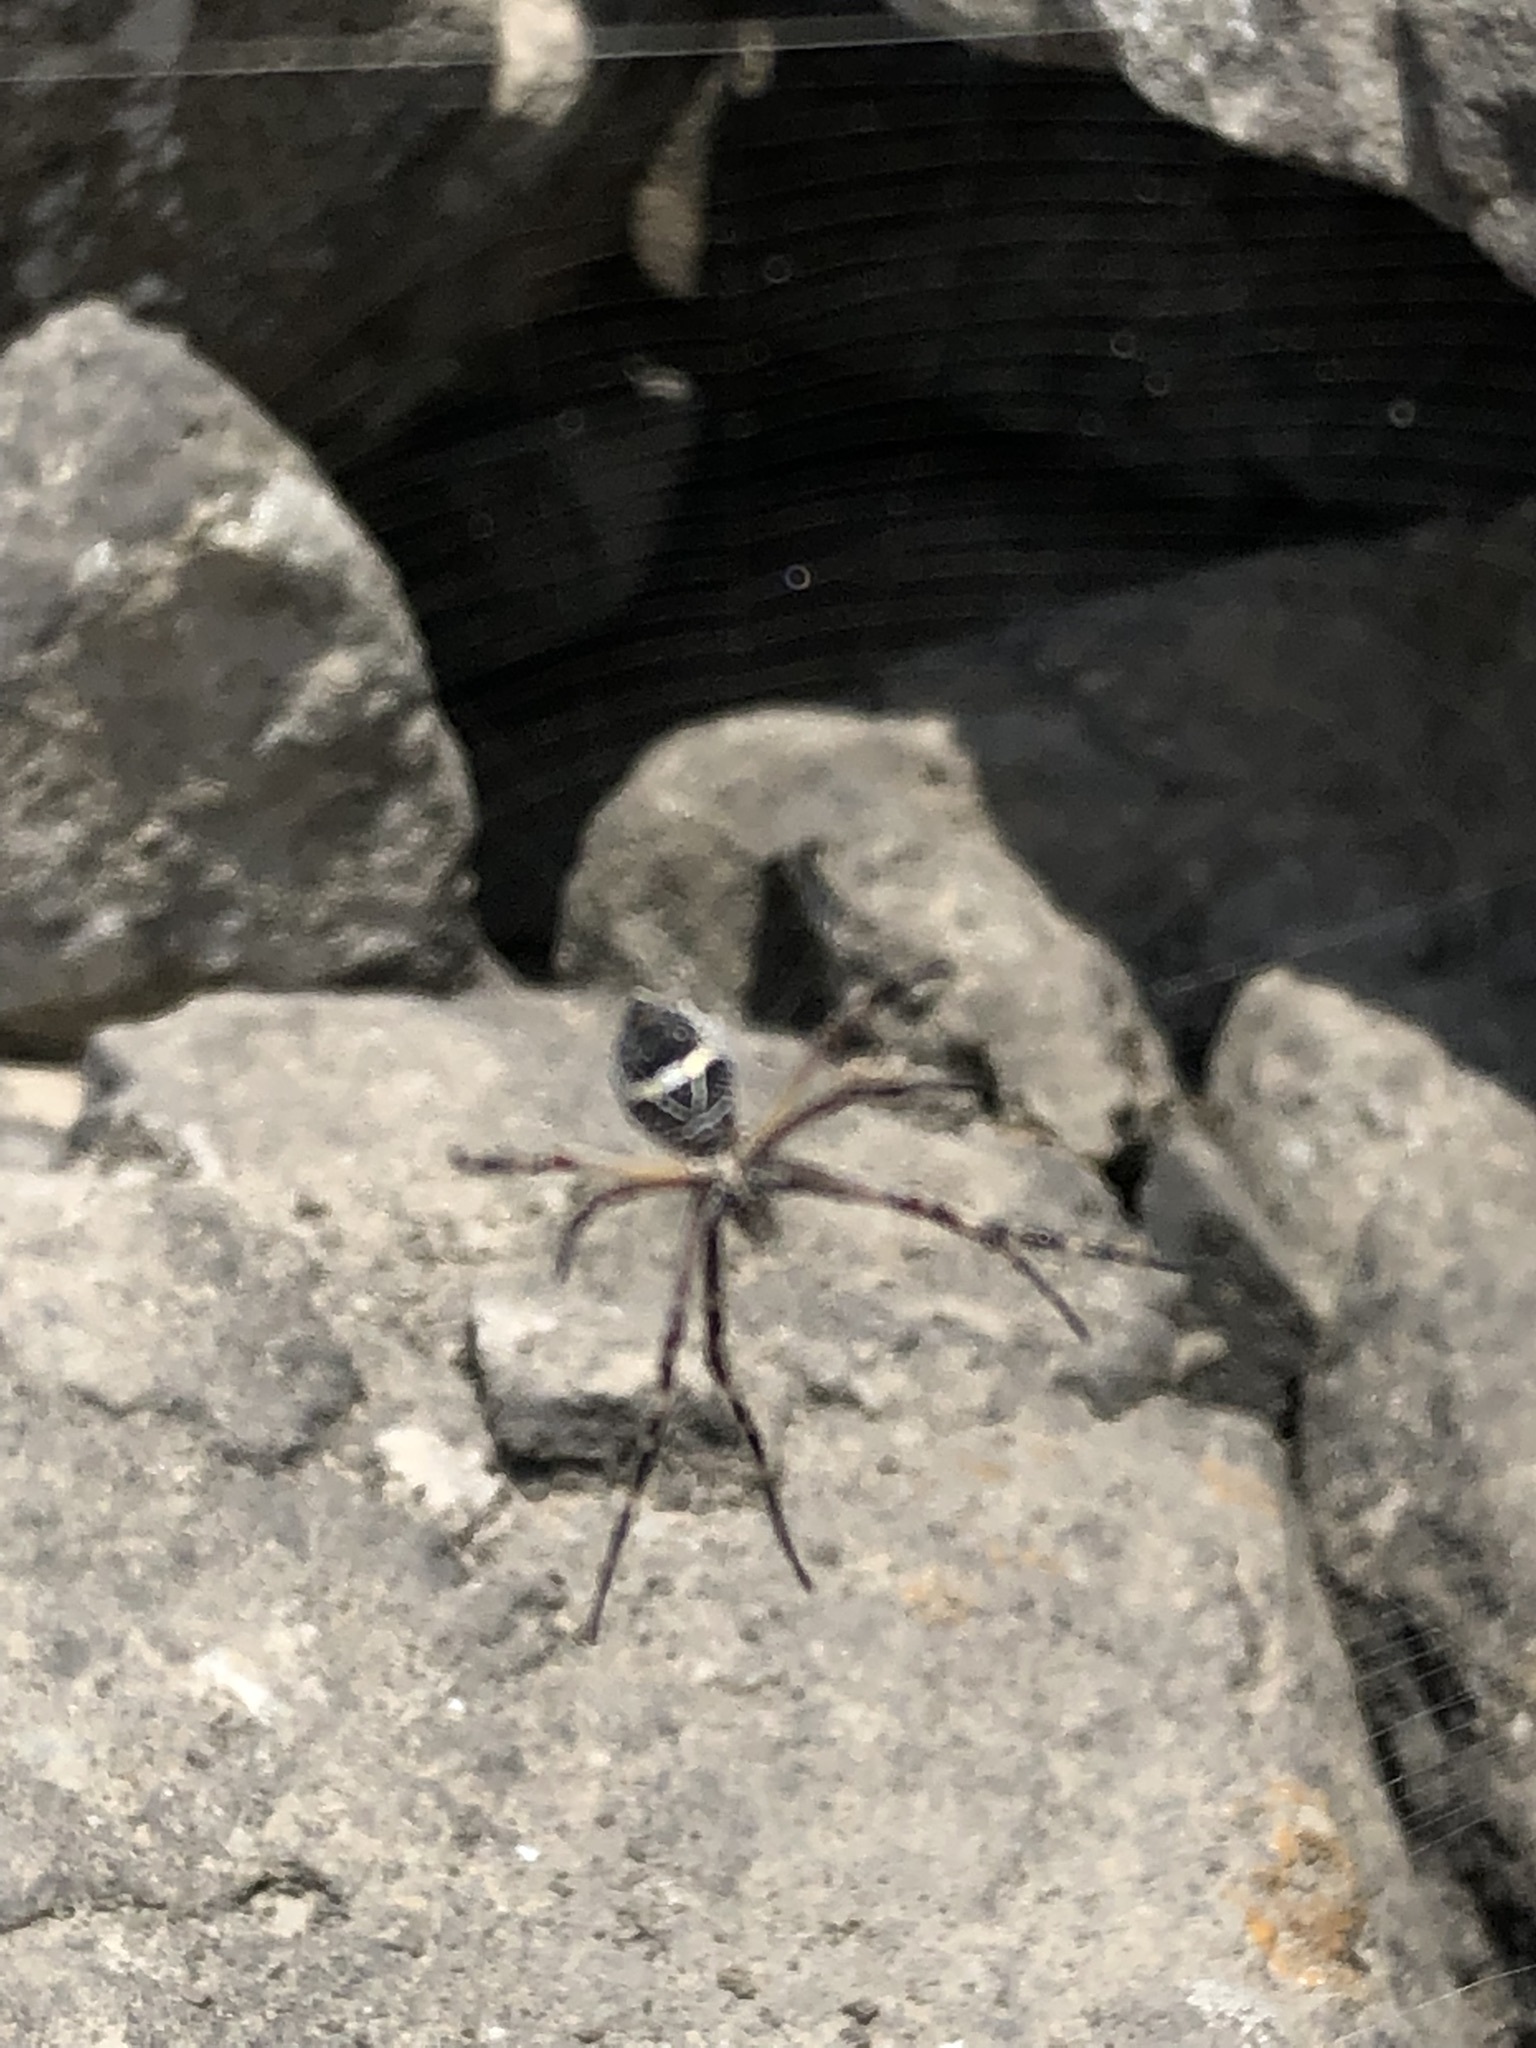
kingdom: Animalia
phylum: Arthropoda
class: Arachnida
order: Araneae
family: Araneidae
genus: Argiope
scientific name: Argiope argentata
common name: Orb weavers
